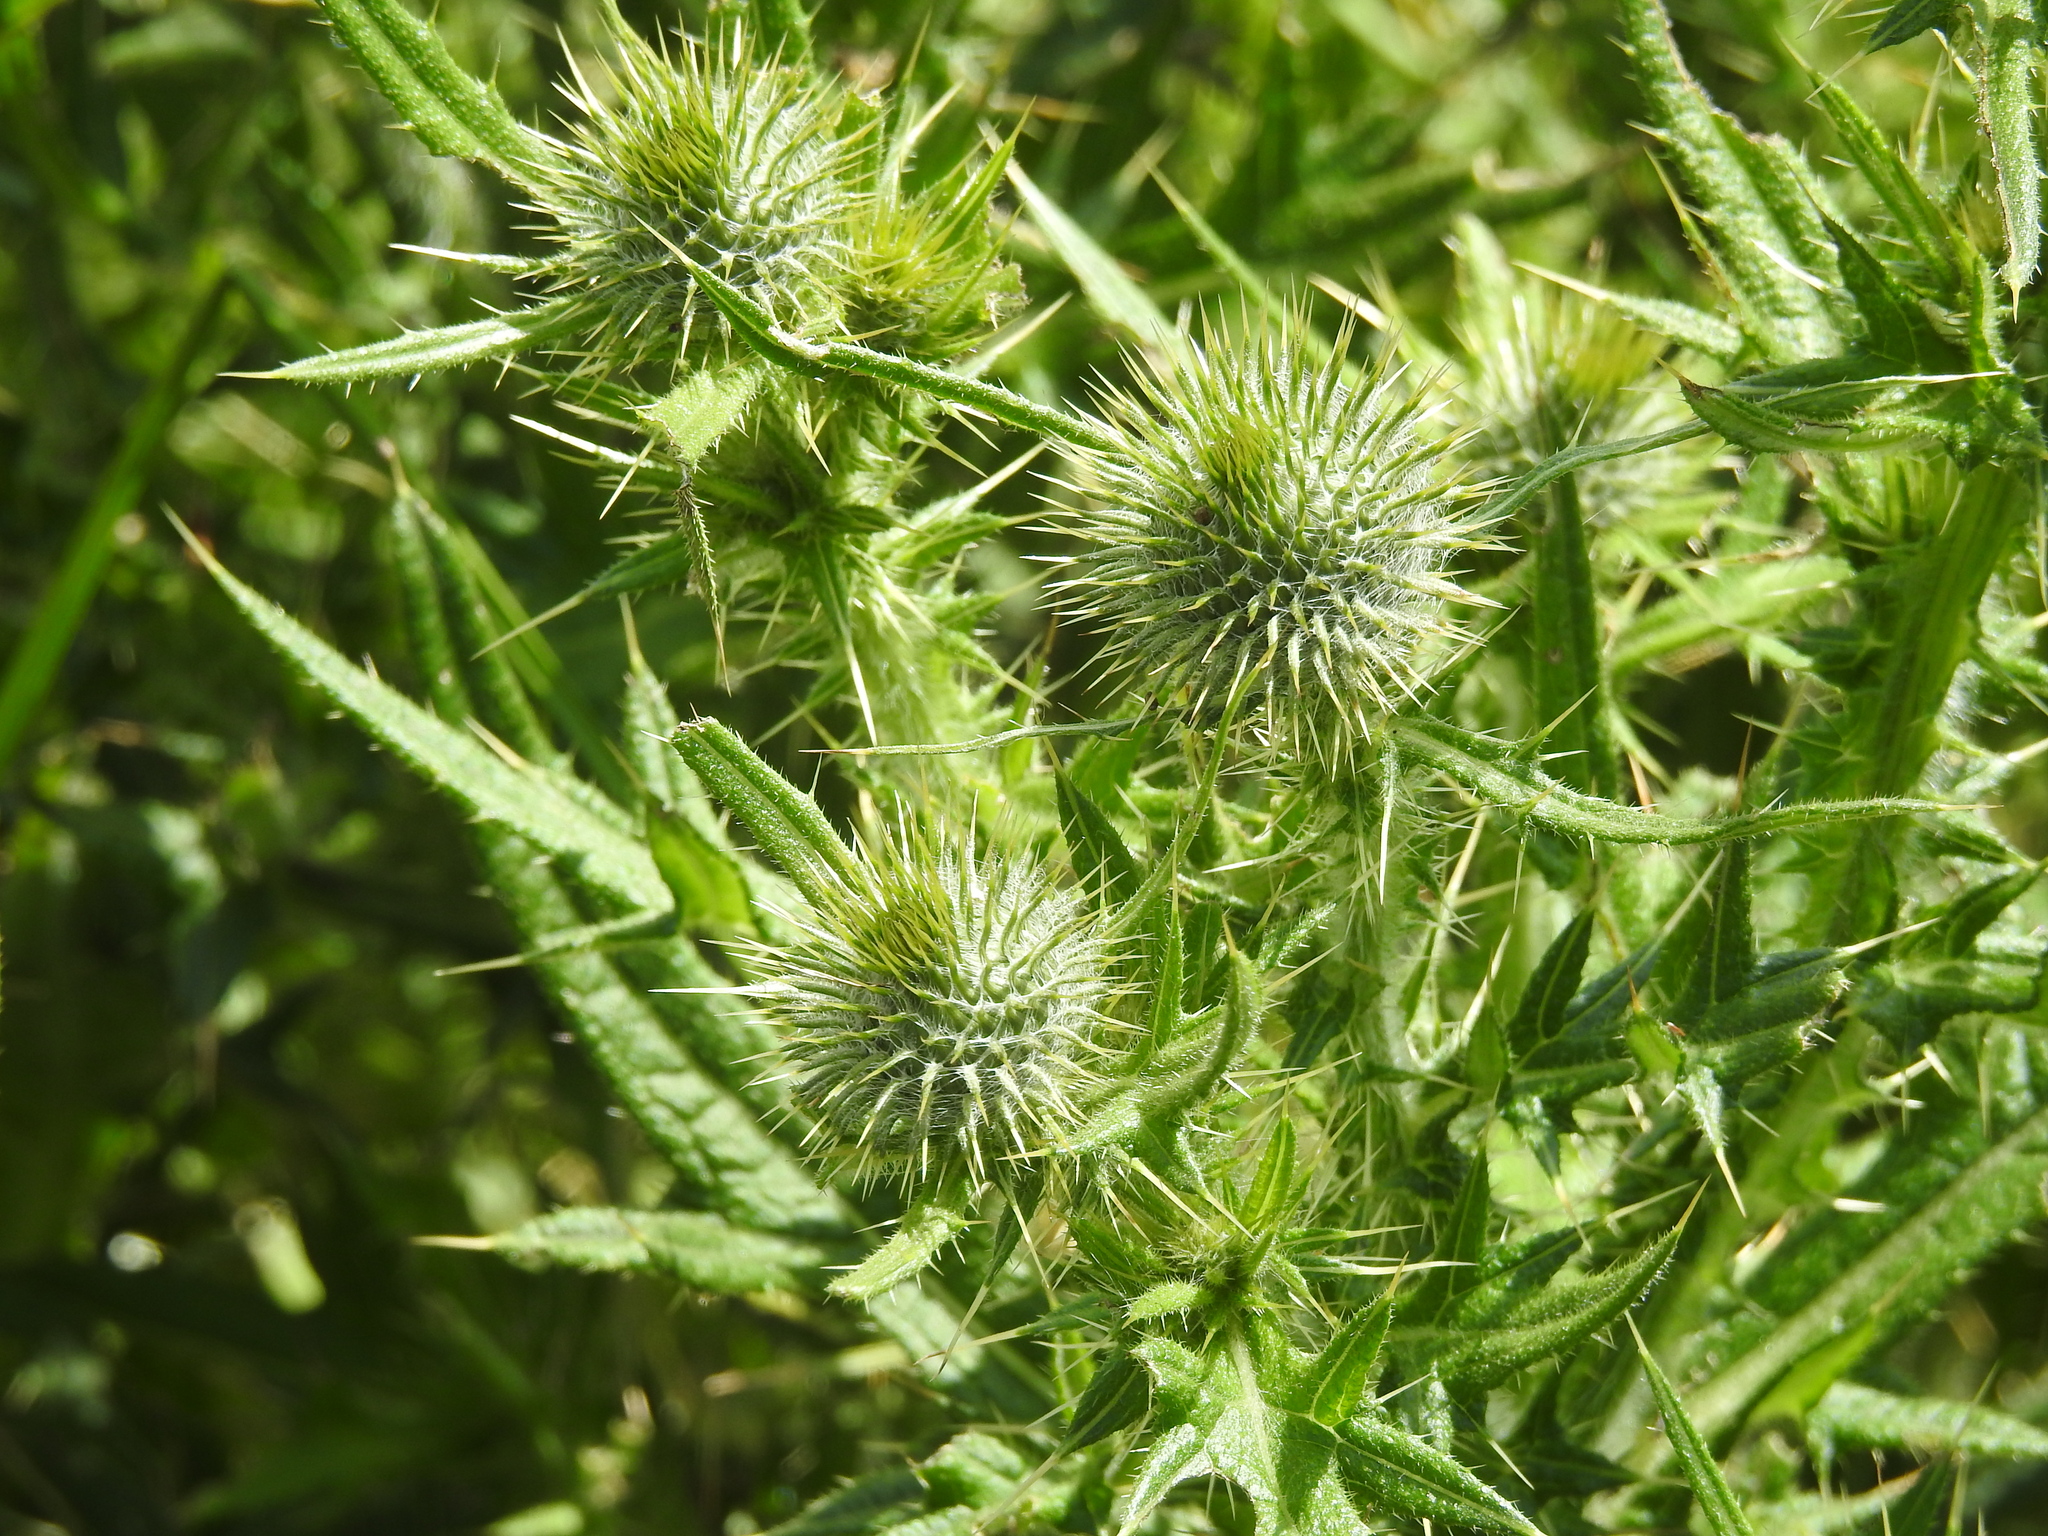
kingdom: Plantae
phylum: Tracheophyta
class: Magnoliopsida
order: Asterales
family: Asteraceae
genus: Cirsium
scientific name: Cirsium vulgare
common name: Bull thistle
